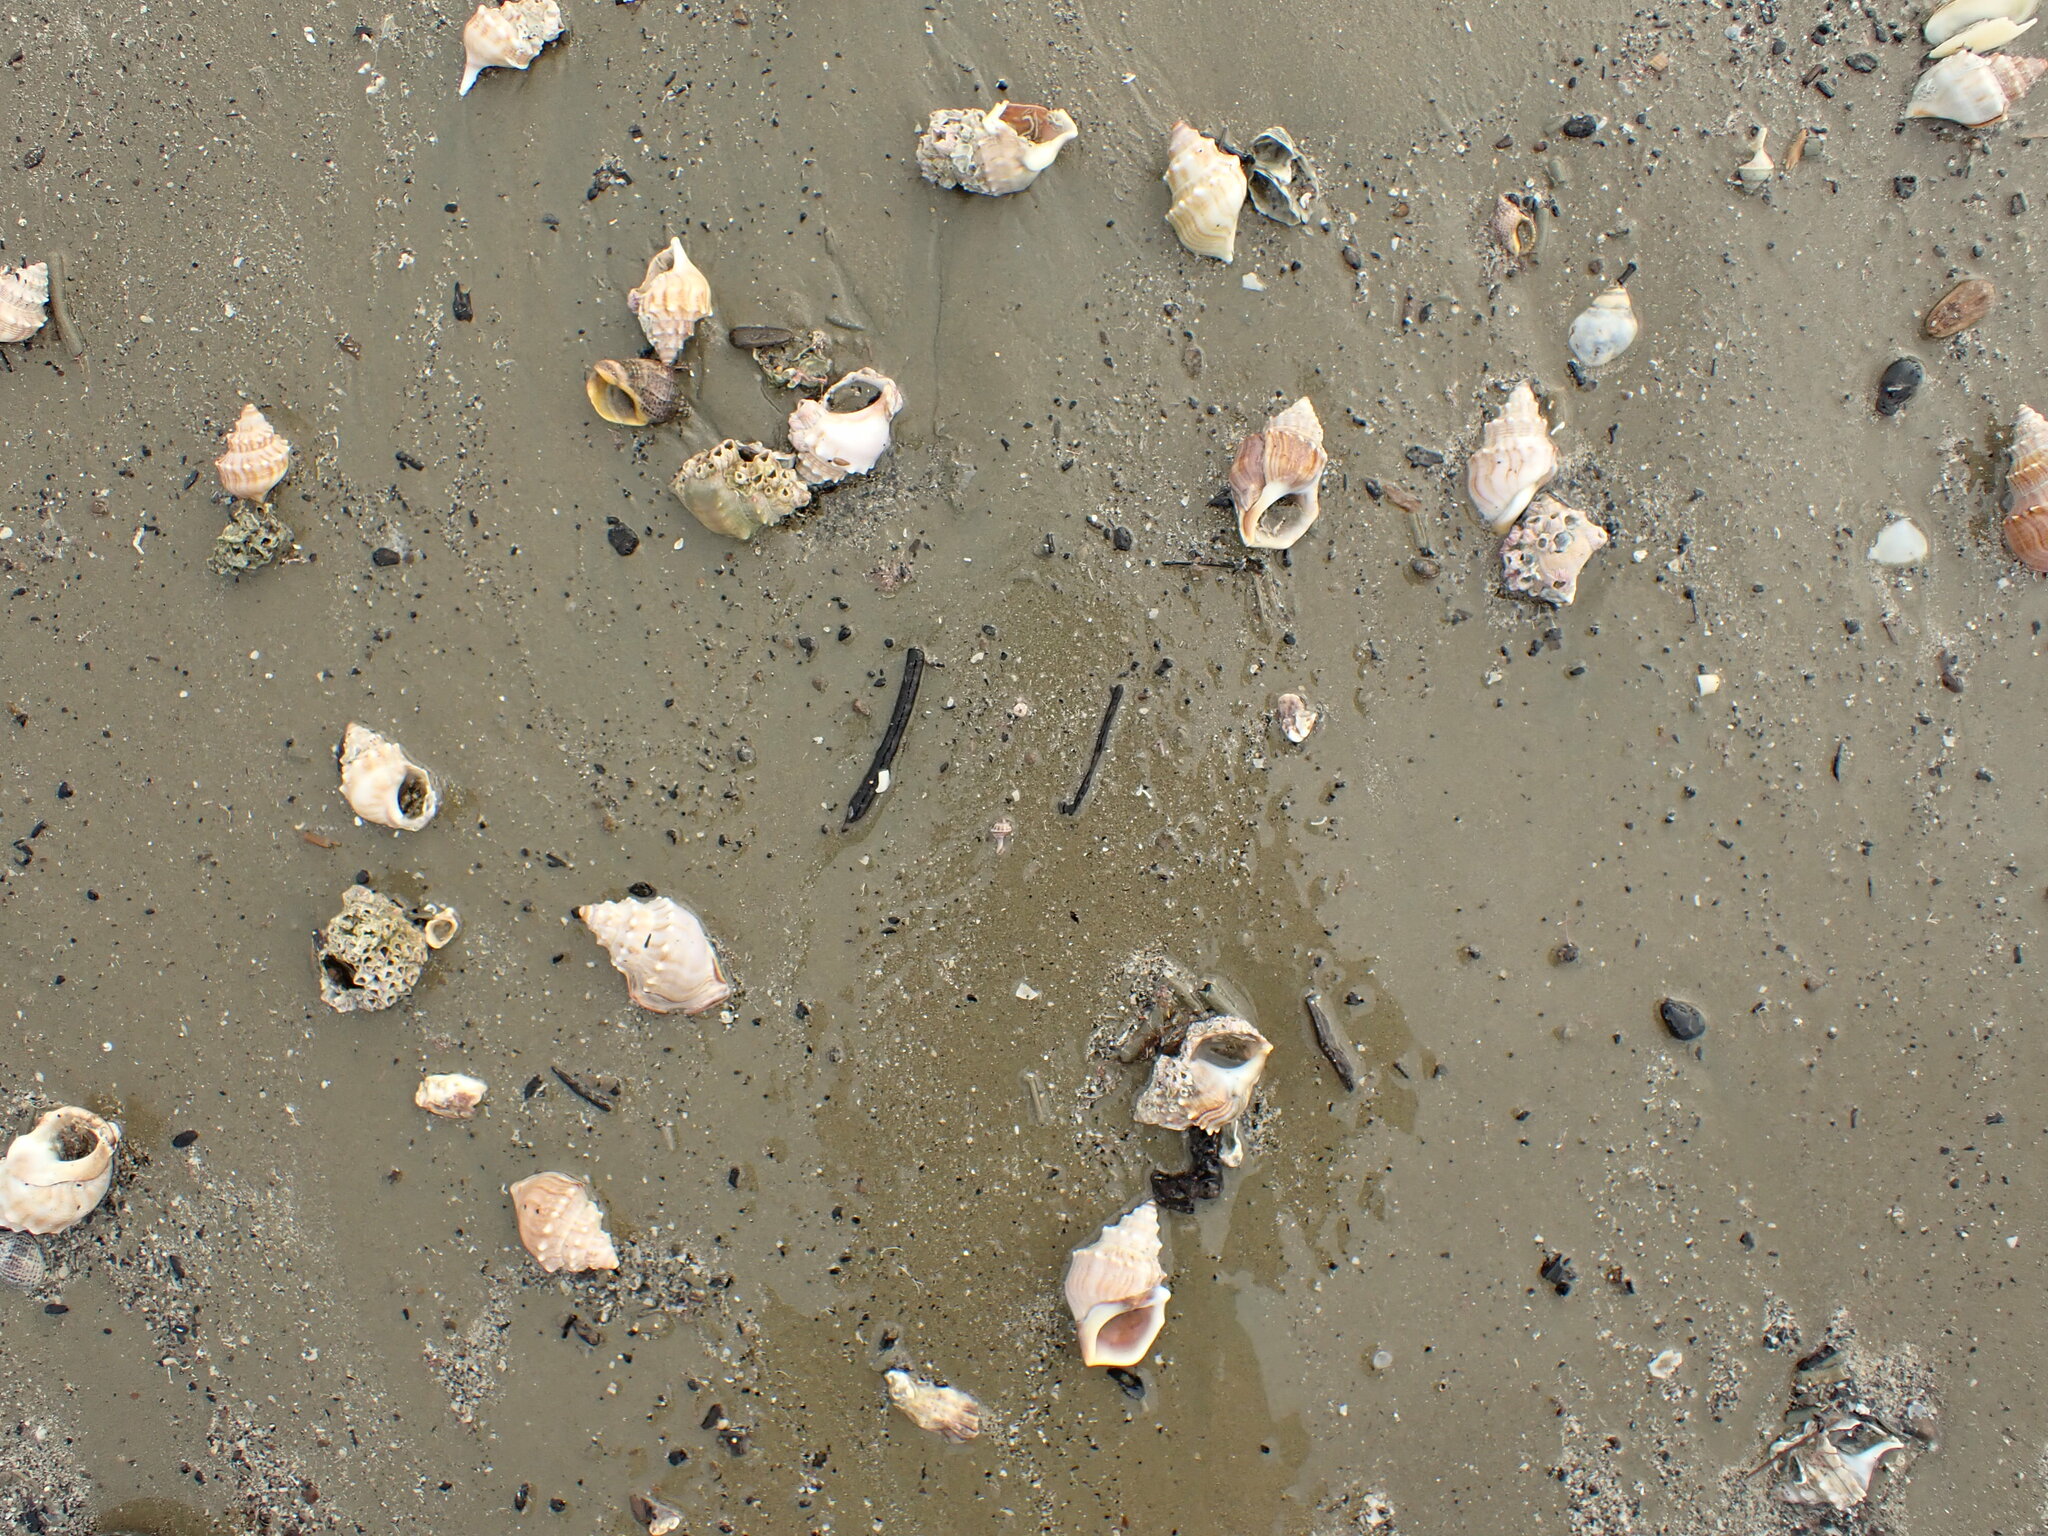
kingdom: Animalia
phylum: Mollusca
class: Gastropoda
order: Littorinimorpha
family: Struthiolariidae
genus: Struthiolaria
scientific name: Struthiolaria papulosa
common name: Large ostrich foot
